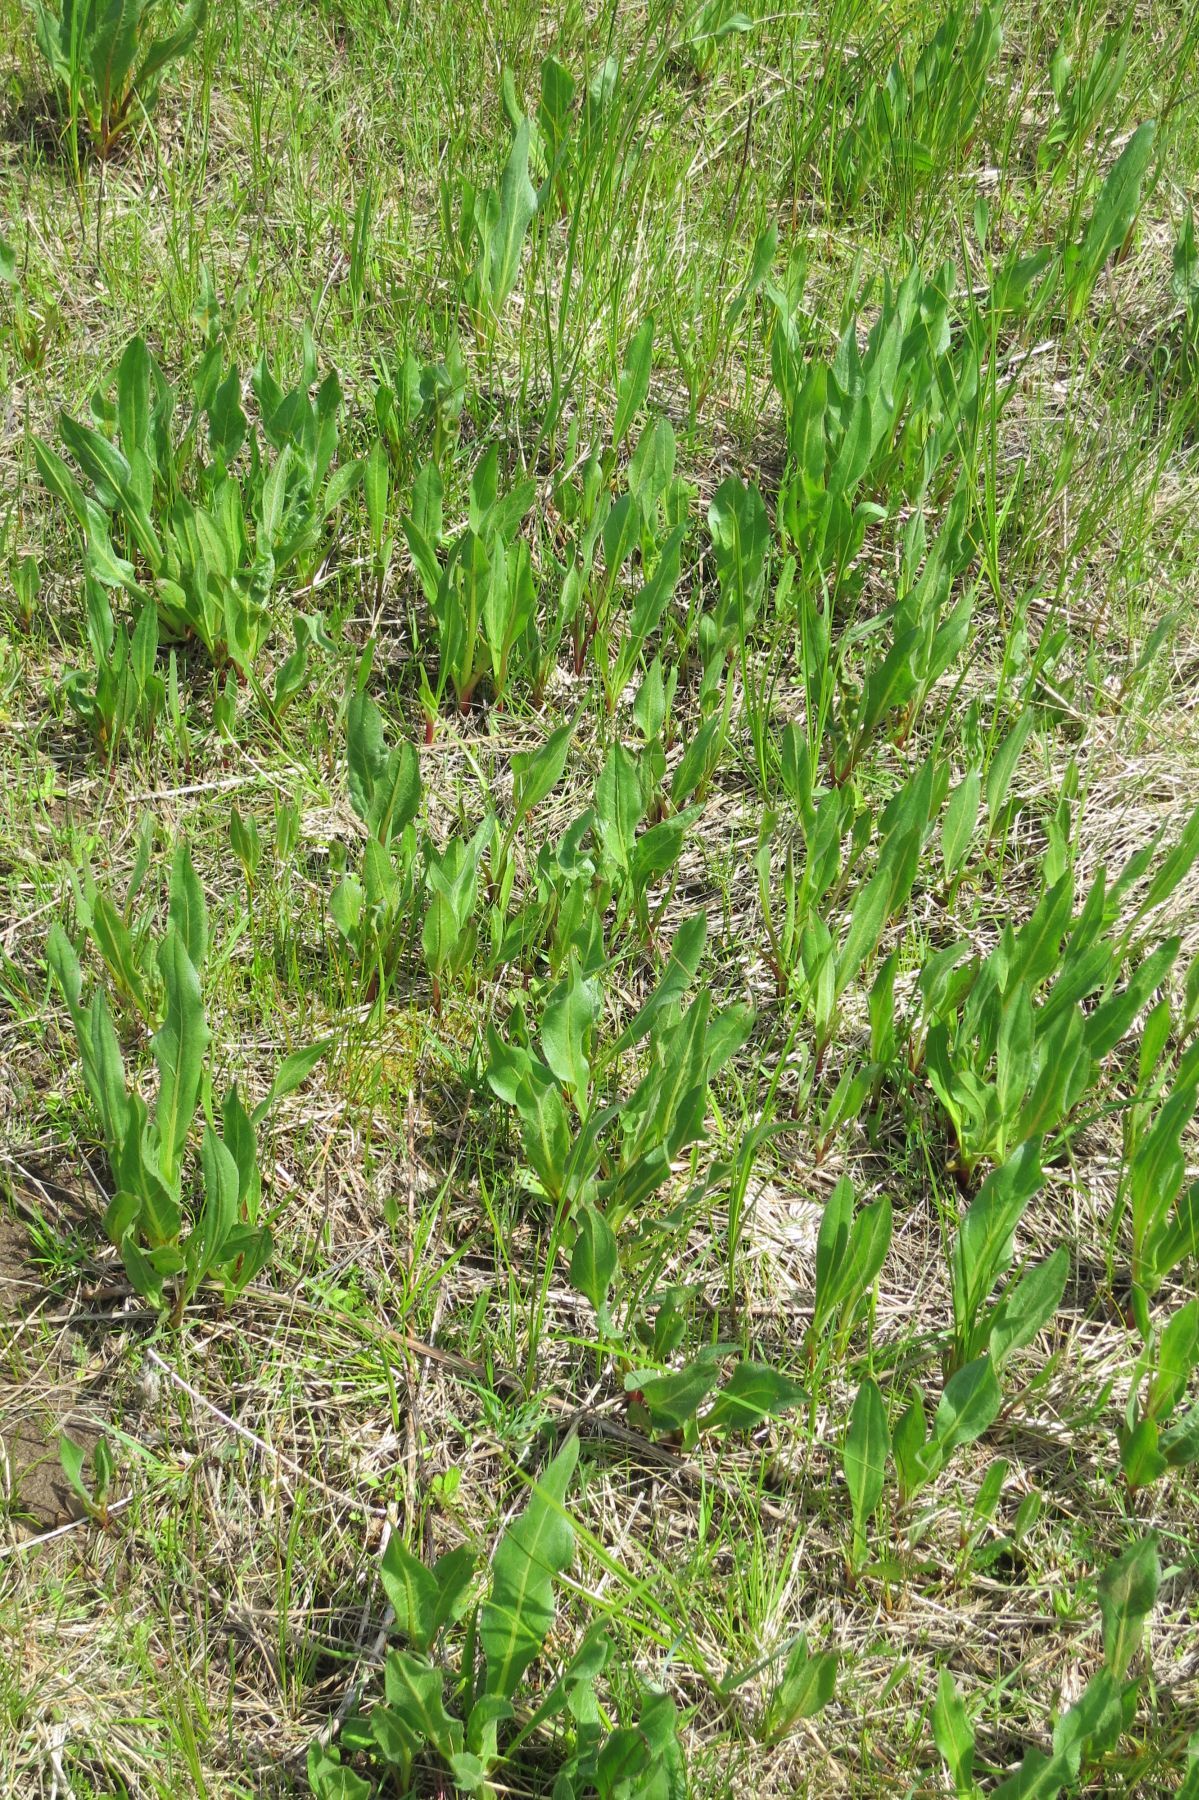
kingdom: Plantae
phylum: Tracheophyta
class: Magnoliopsida
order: Asterales
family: Asteraceae
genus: Wyethia
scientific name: Wyethia angustifolia
